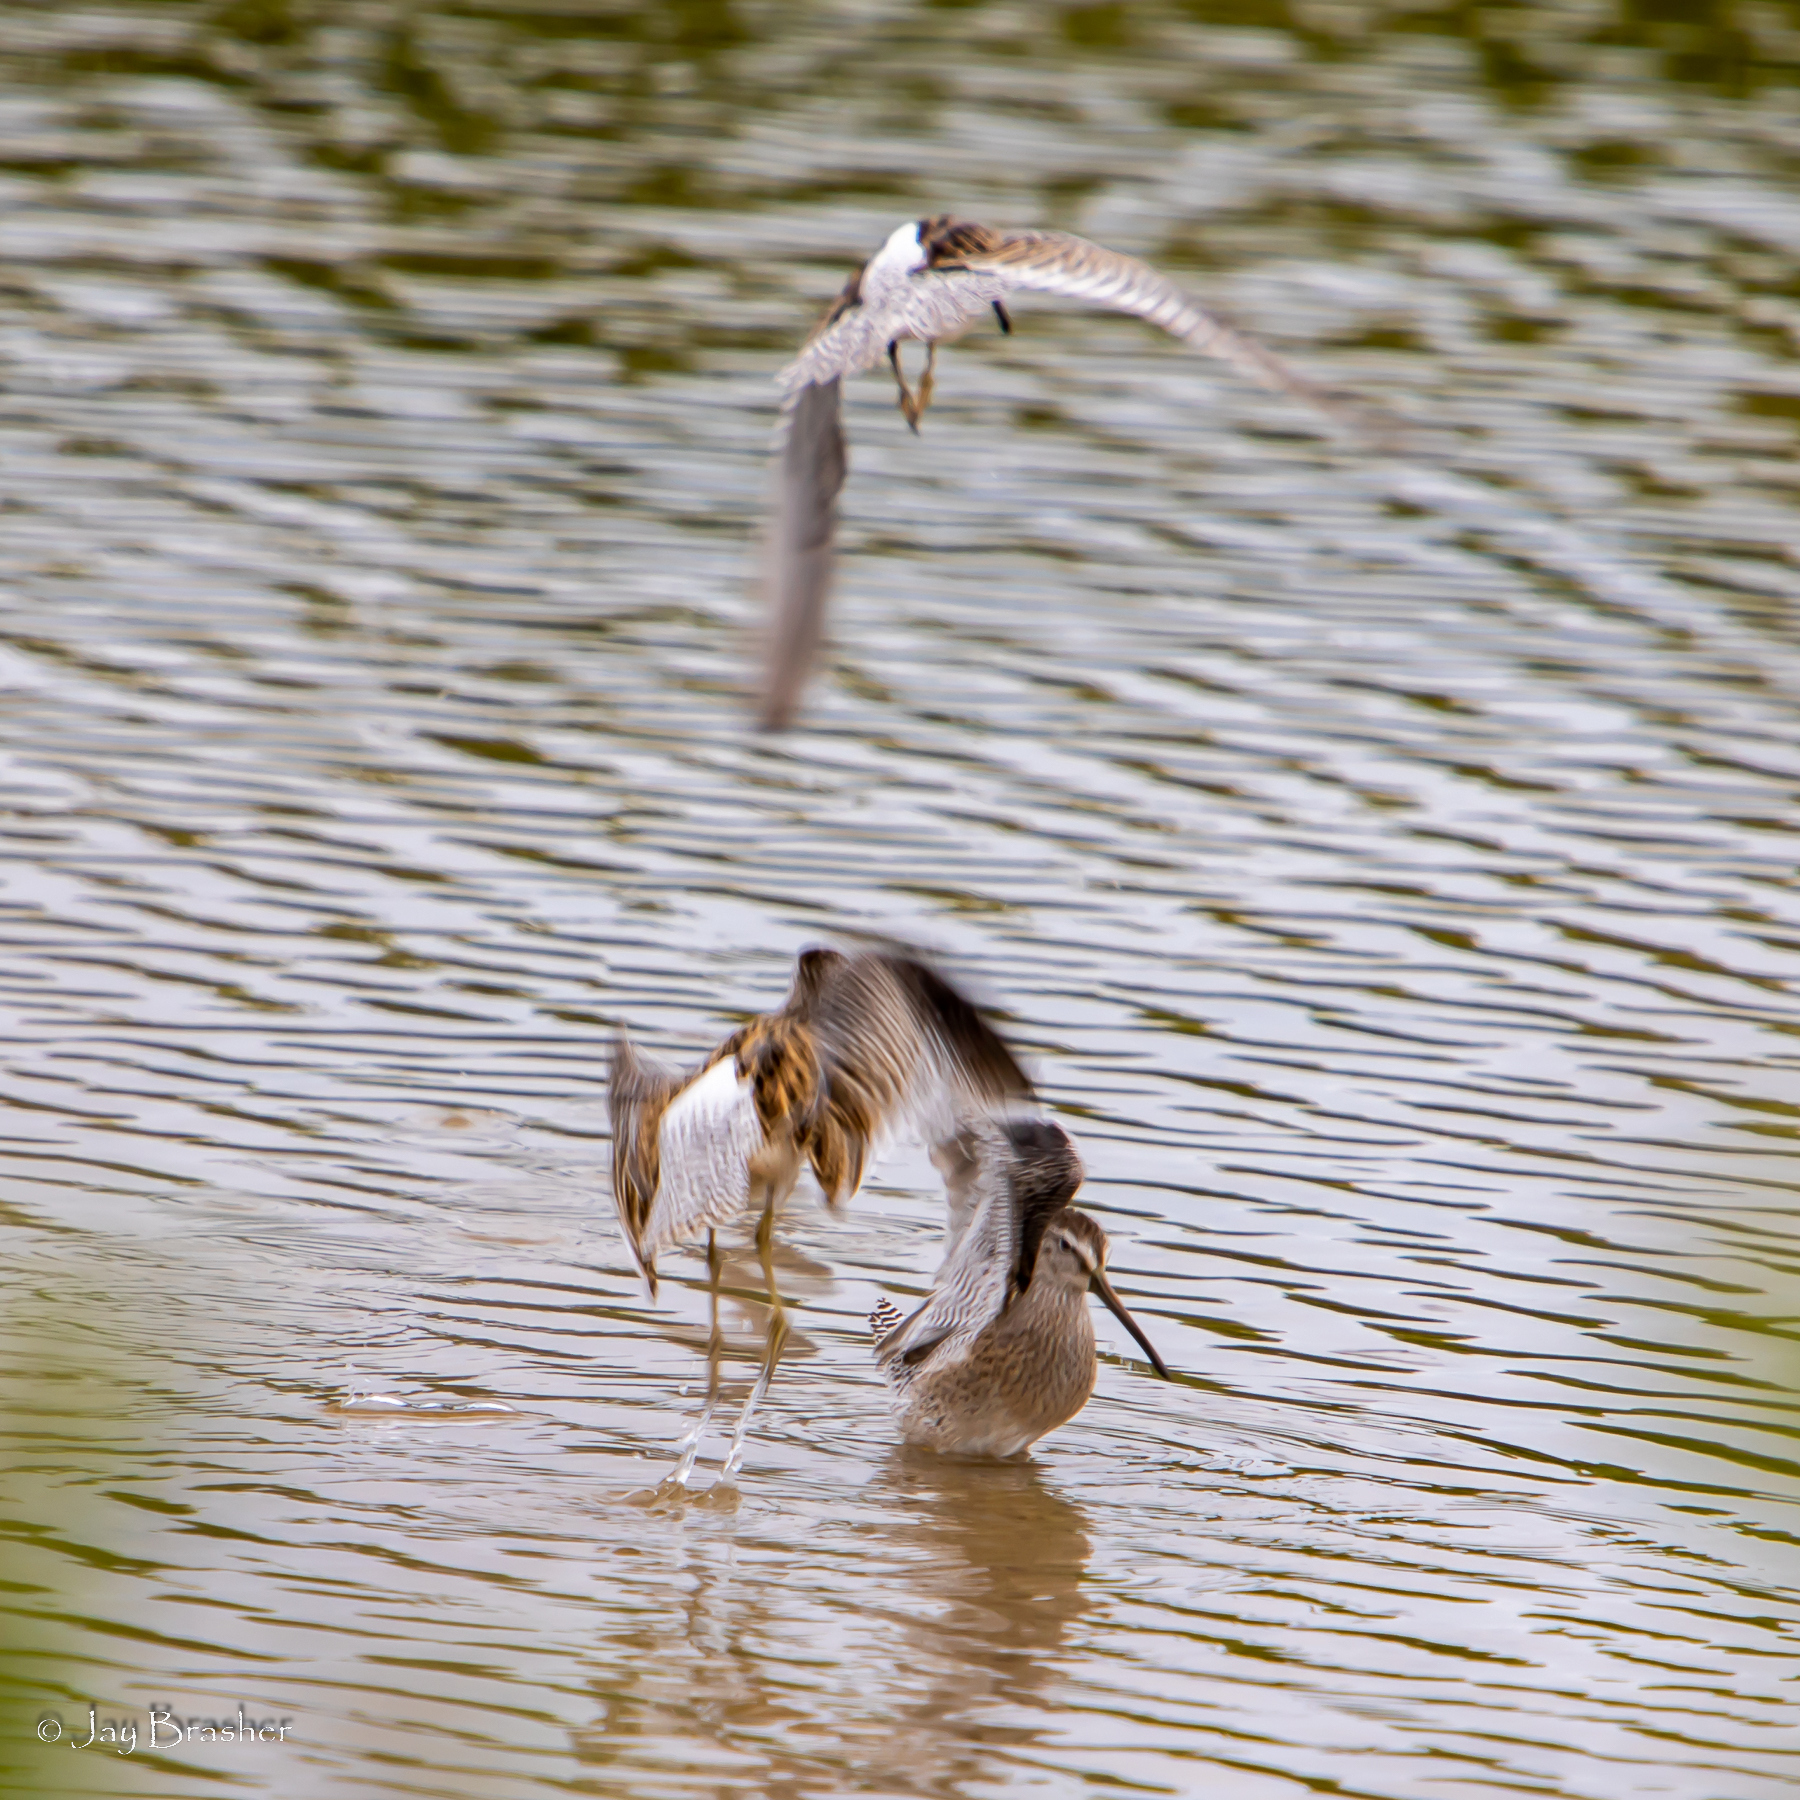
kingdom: Animalia
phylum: Chordata
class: Aves
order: Charadriiformes
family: Scolopacidae
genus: Limnodromus
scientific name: Limnodromus griseus
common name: Short-billed dowitcher
